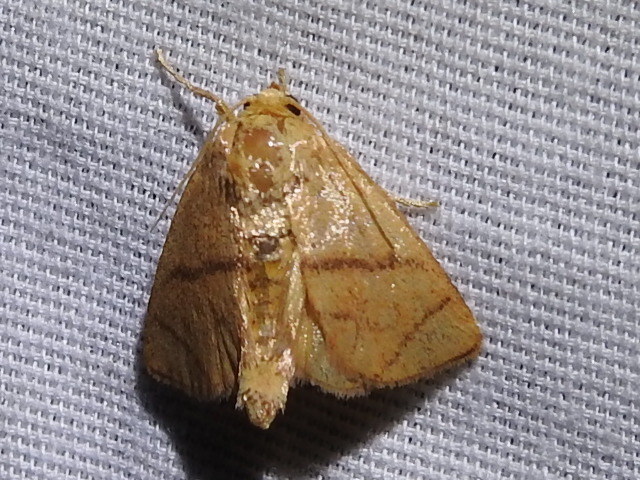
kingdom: Animalia
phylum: Arthropoda
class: Insecta
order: Lepidoptera
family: Limacodidae
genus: Apoda
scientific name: Apoda y-inversa
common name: Yellow-collared slug moth
